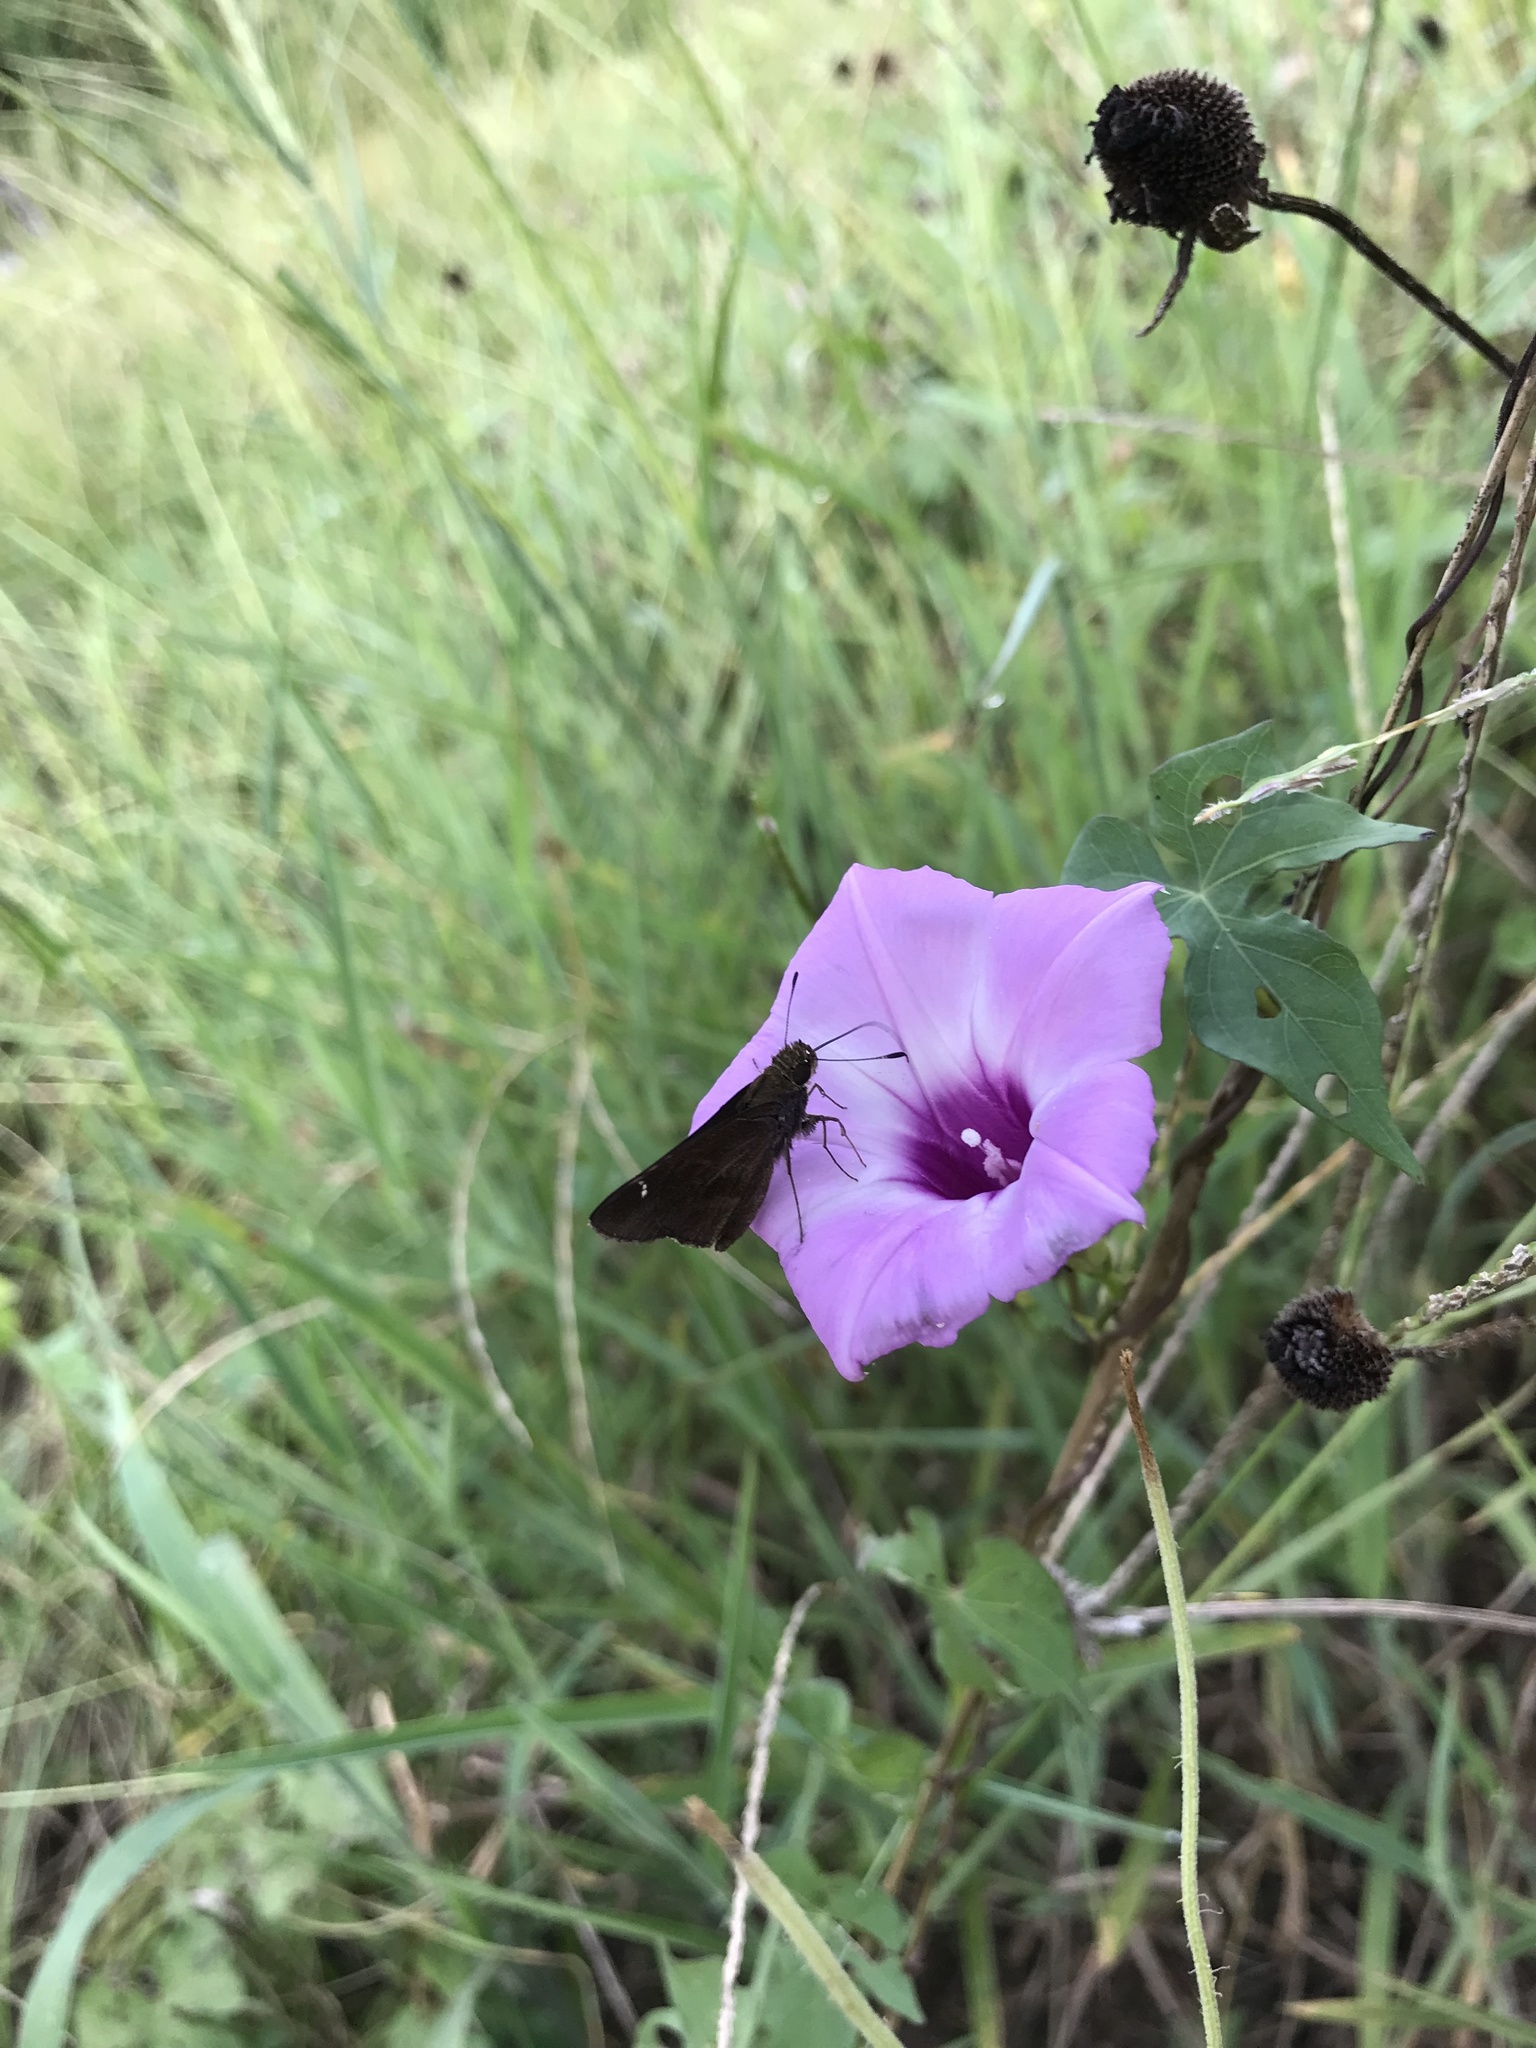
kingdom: Animalia
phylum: Arthropoda
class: Insecta
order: Lepidoptera
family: Hesperiidae
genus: Lerema
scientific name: Lerema accius
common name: Clouded skipper
